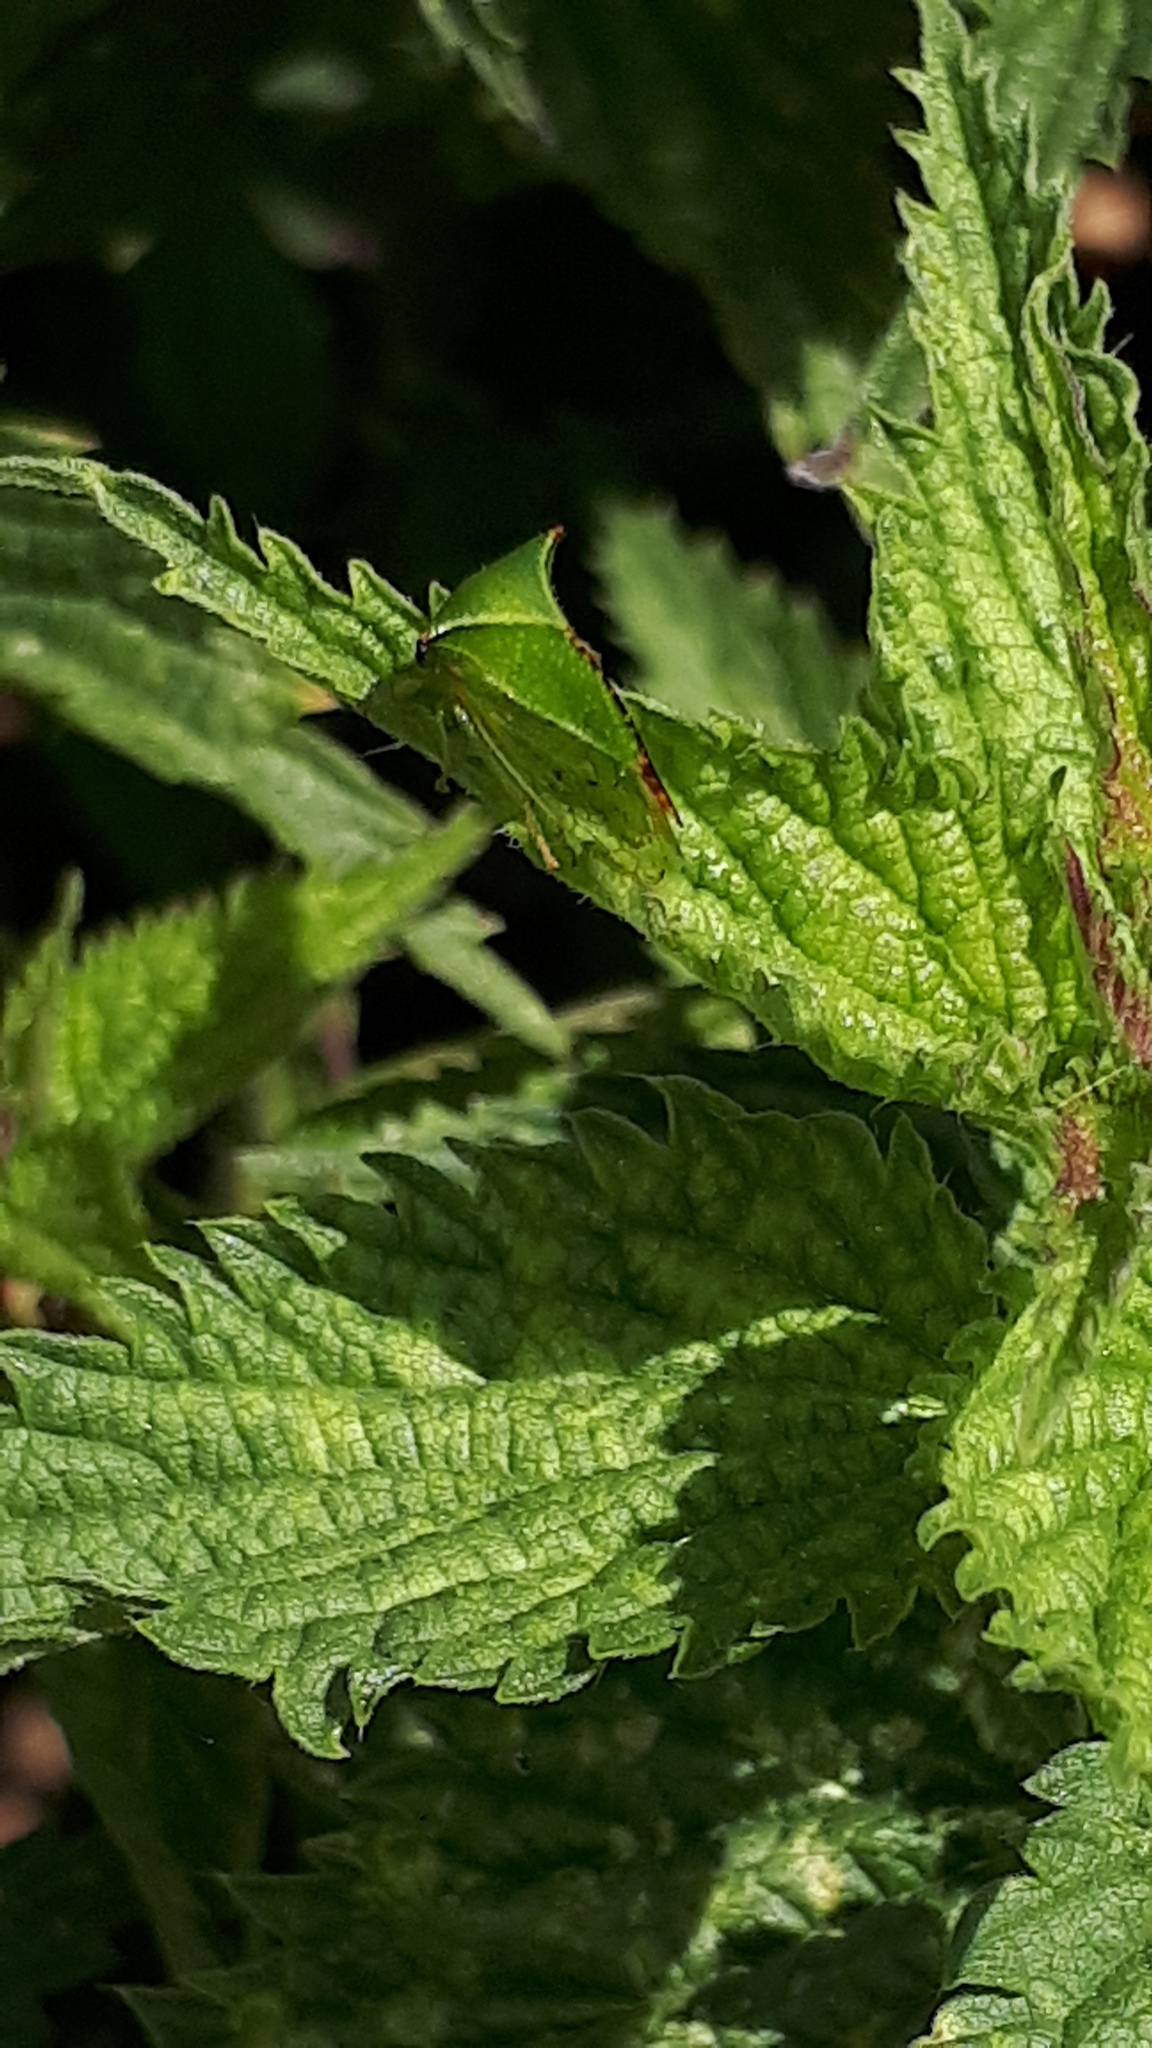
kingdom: Animalia
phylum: Arthropoda
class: Insecta
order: Hemiptera
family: Membracidae
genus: Stictocephala
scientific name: Stictocephala bisonia
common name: American buffalo treehopper
